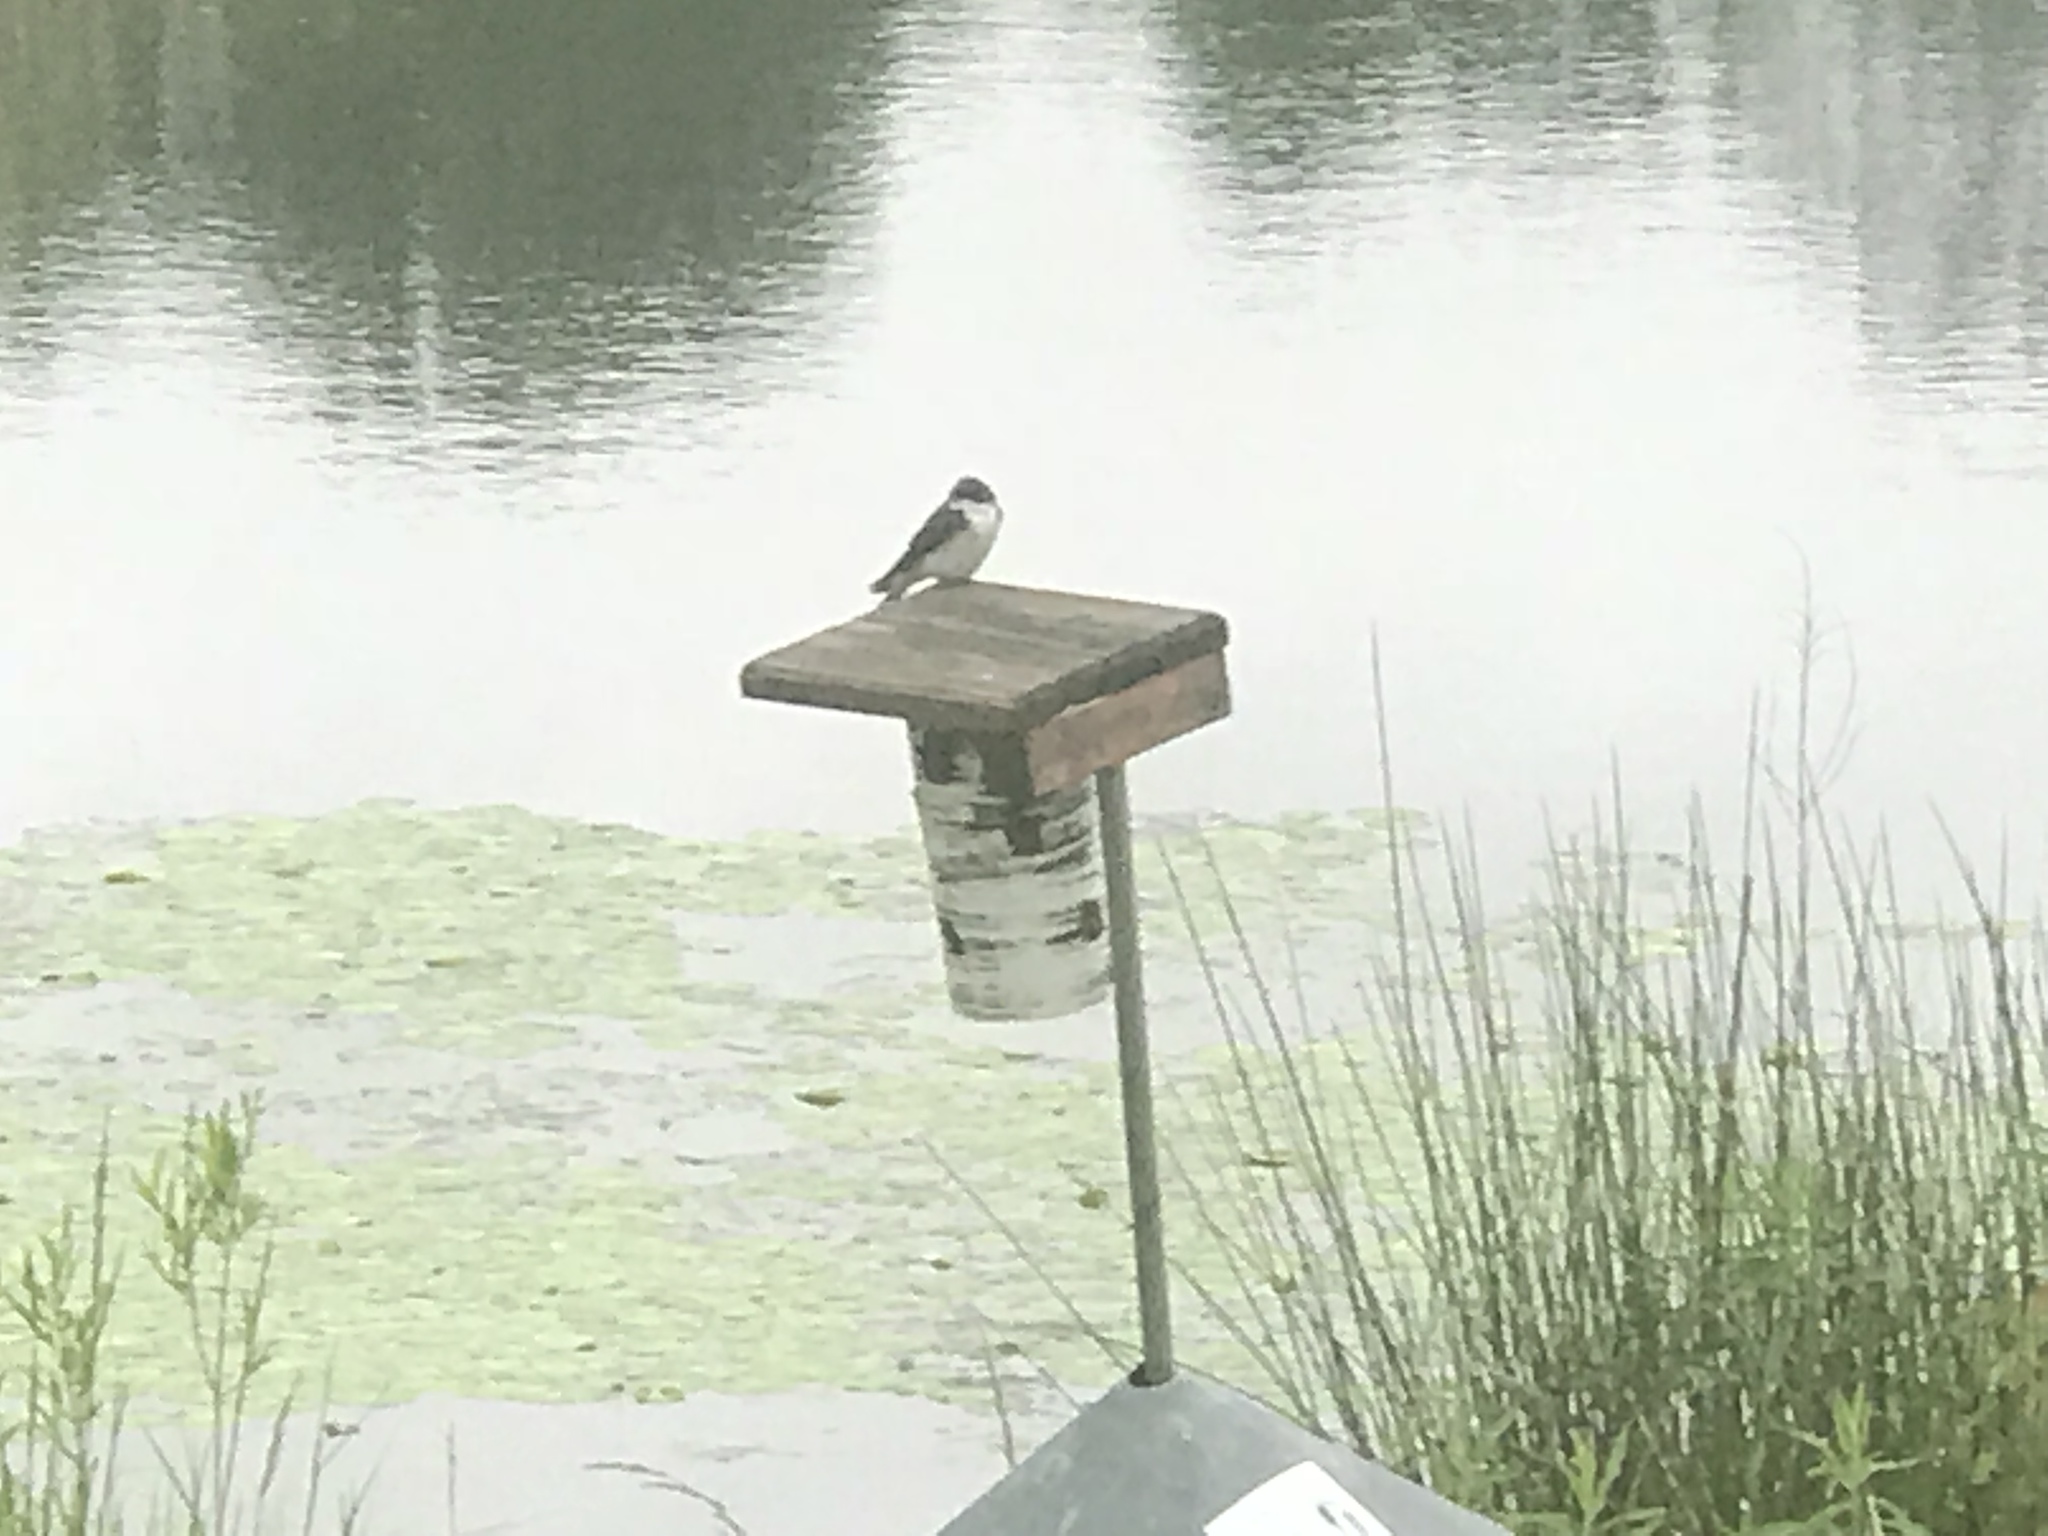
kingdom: Animalia
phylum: Chordata
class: Aves
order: Passeriformes
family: Hirundinidae
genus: Tachycineta
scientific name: Tachycineta bicolor
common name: Tree swallow
